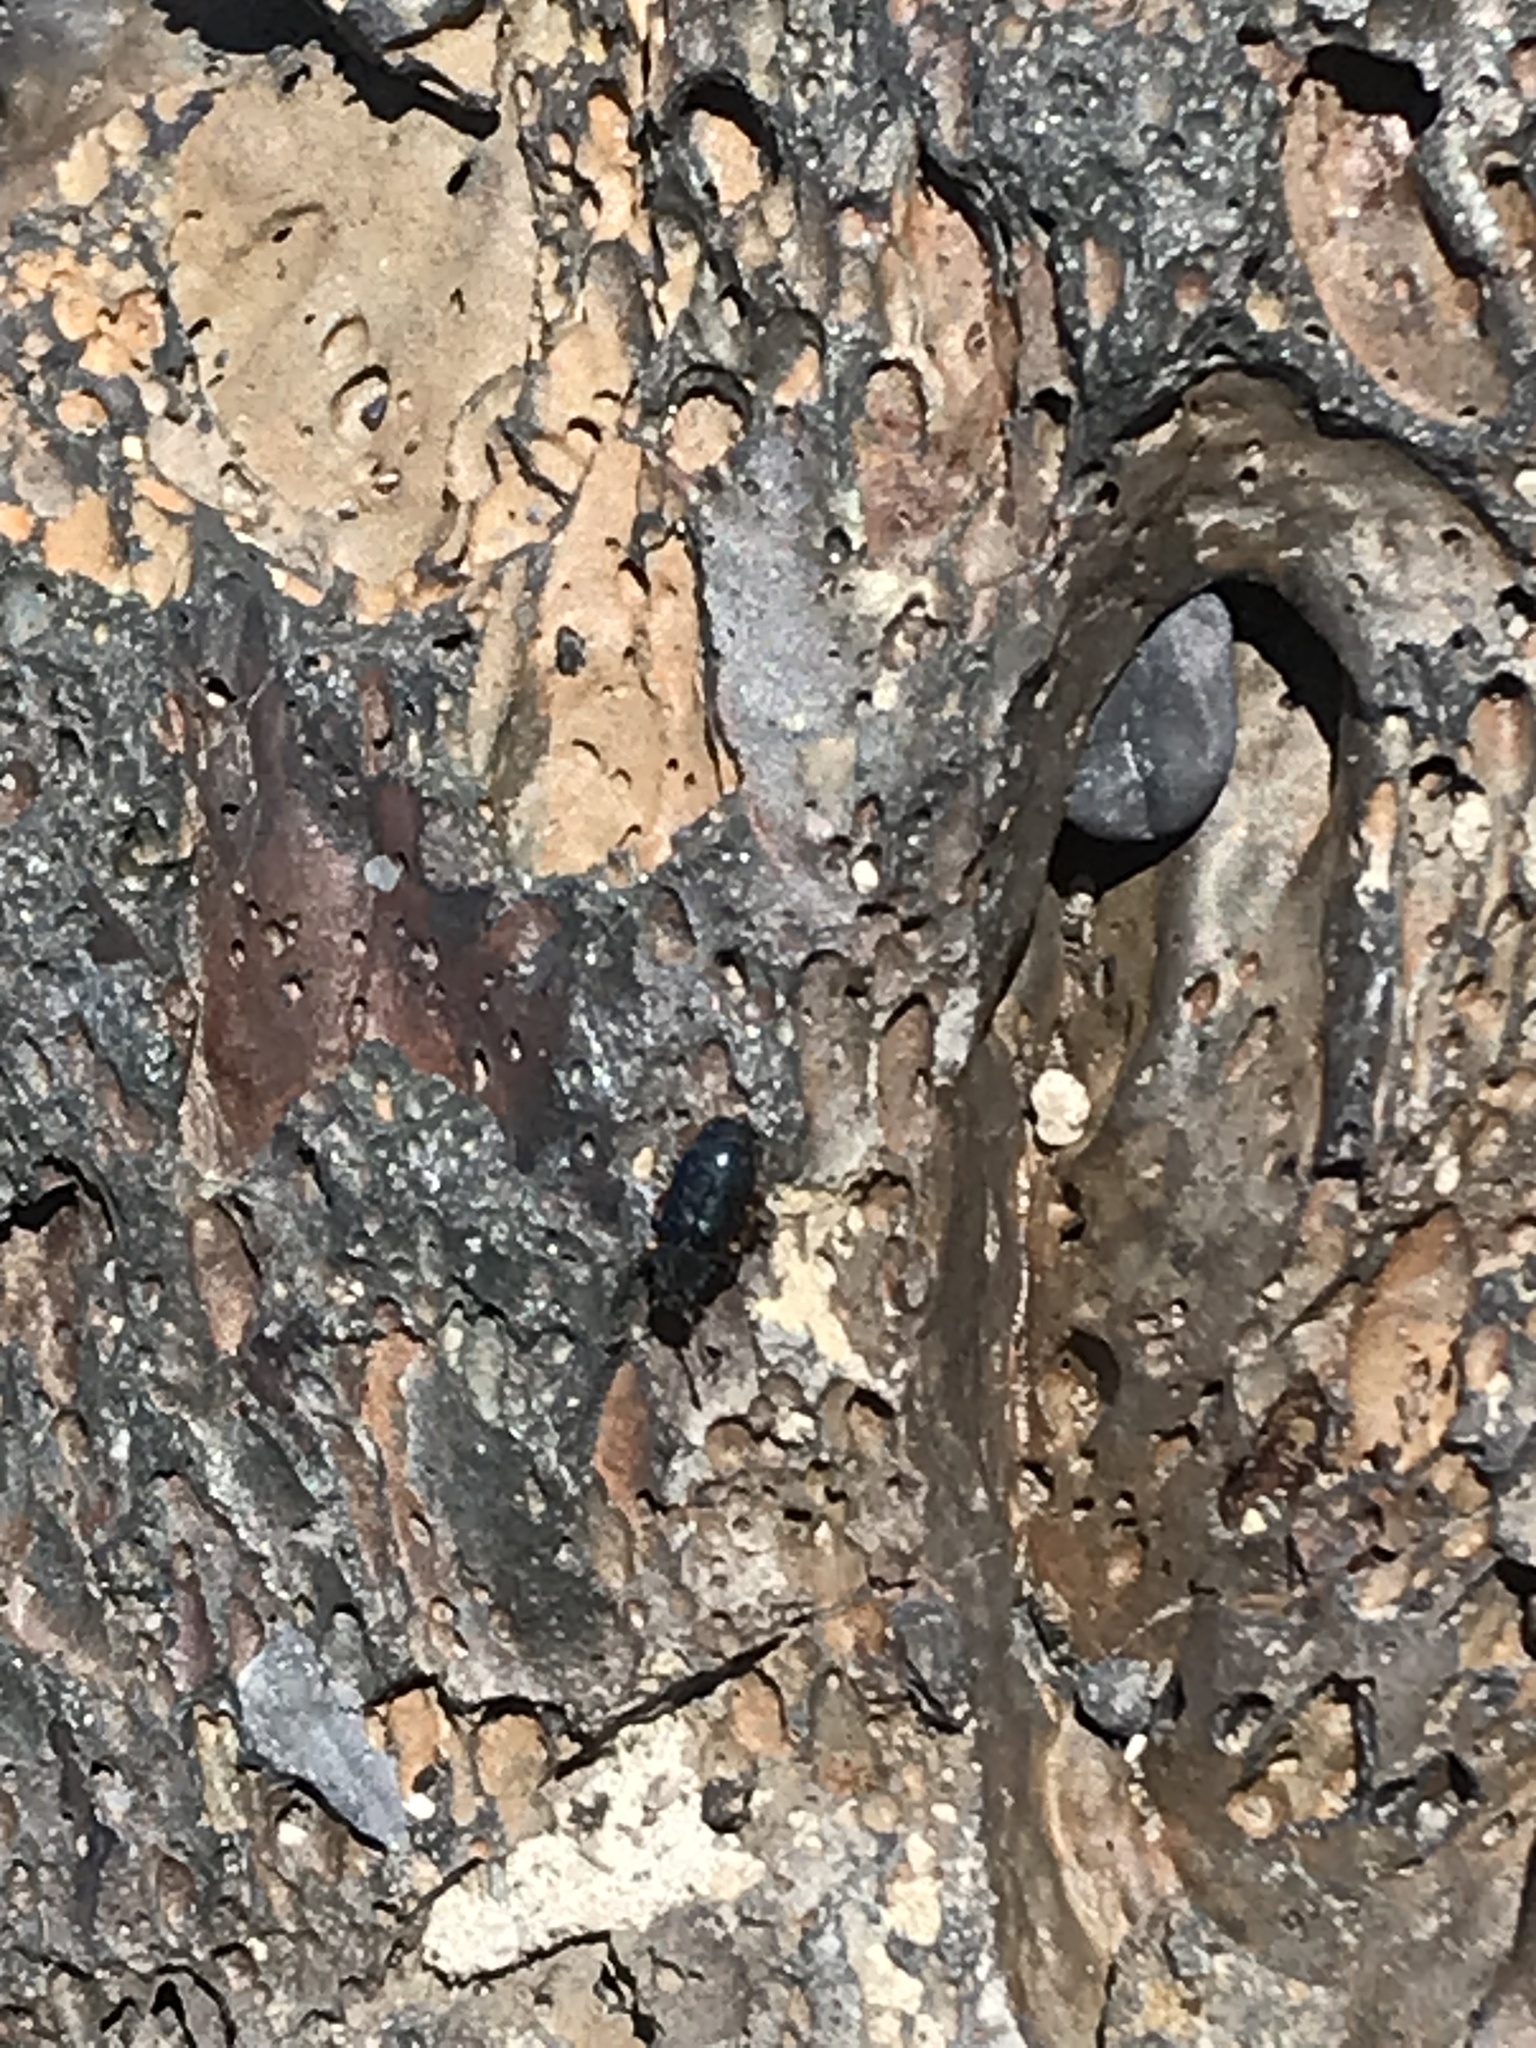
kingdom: Animalia
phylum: Arthropoda
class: Insecta
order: Coleoptera
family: Cleridae
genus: Necrobia
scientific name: Necrobia rufipes
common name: Red-legged ham beetle
